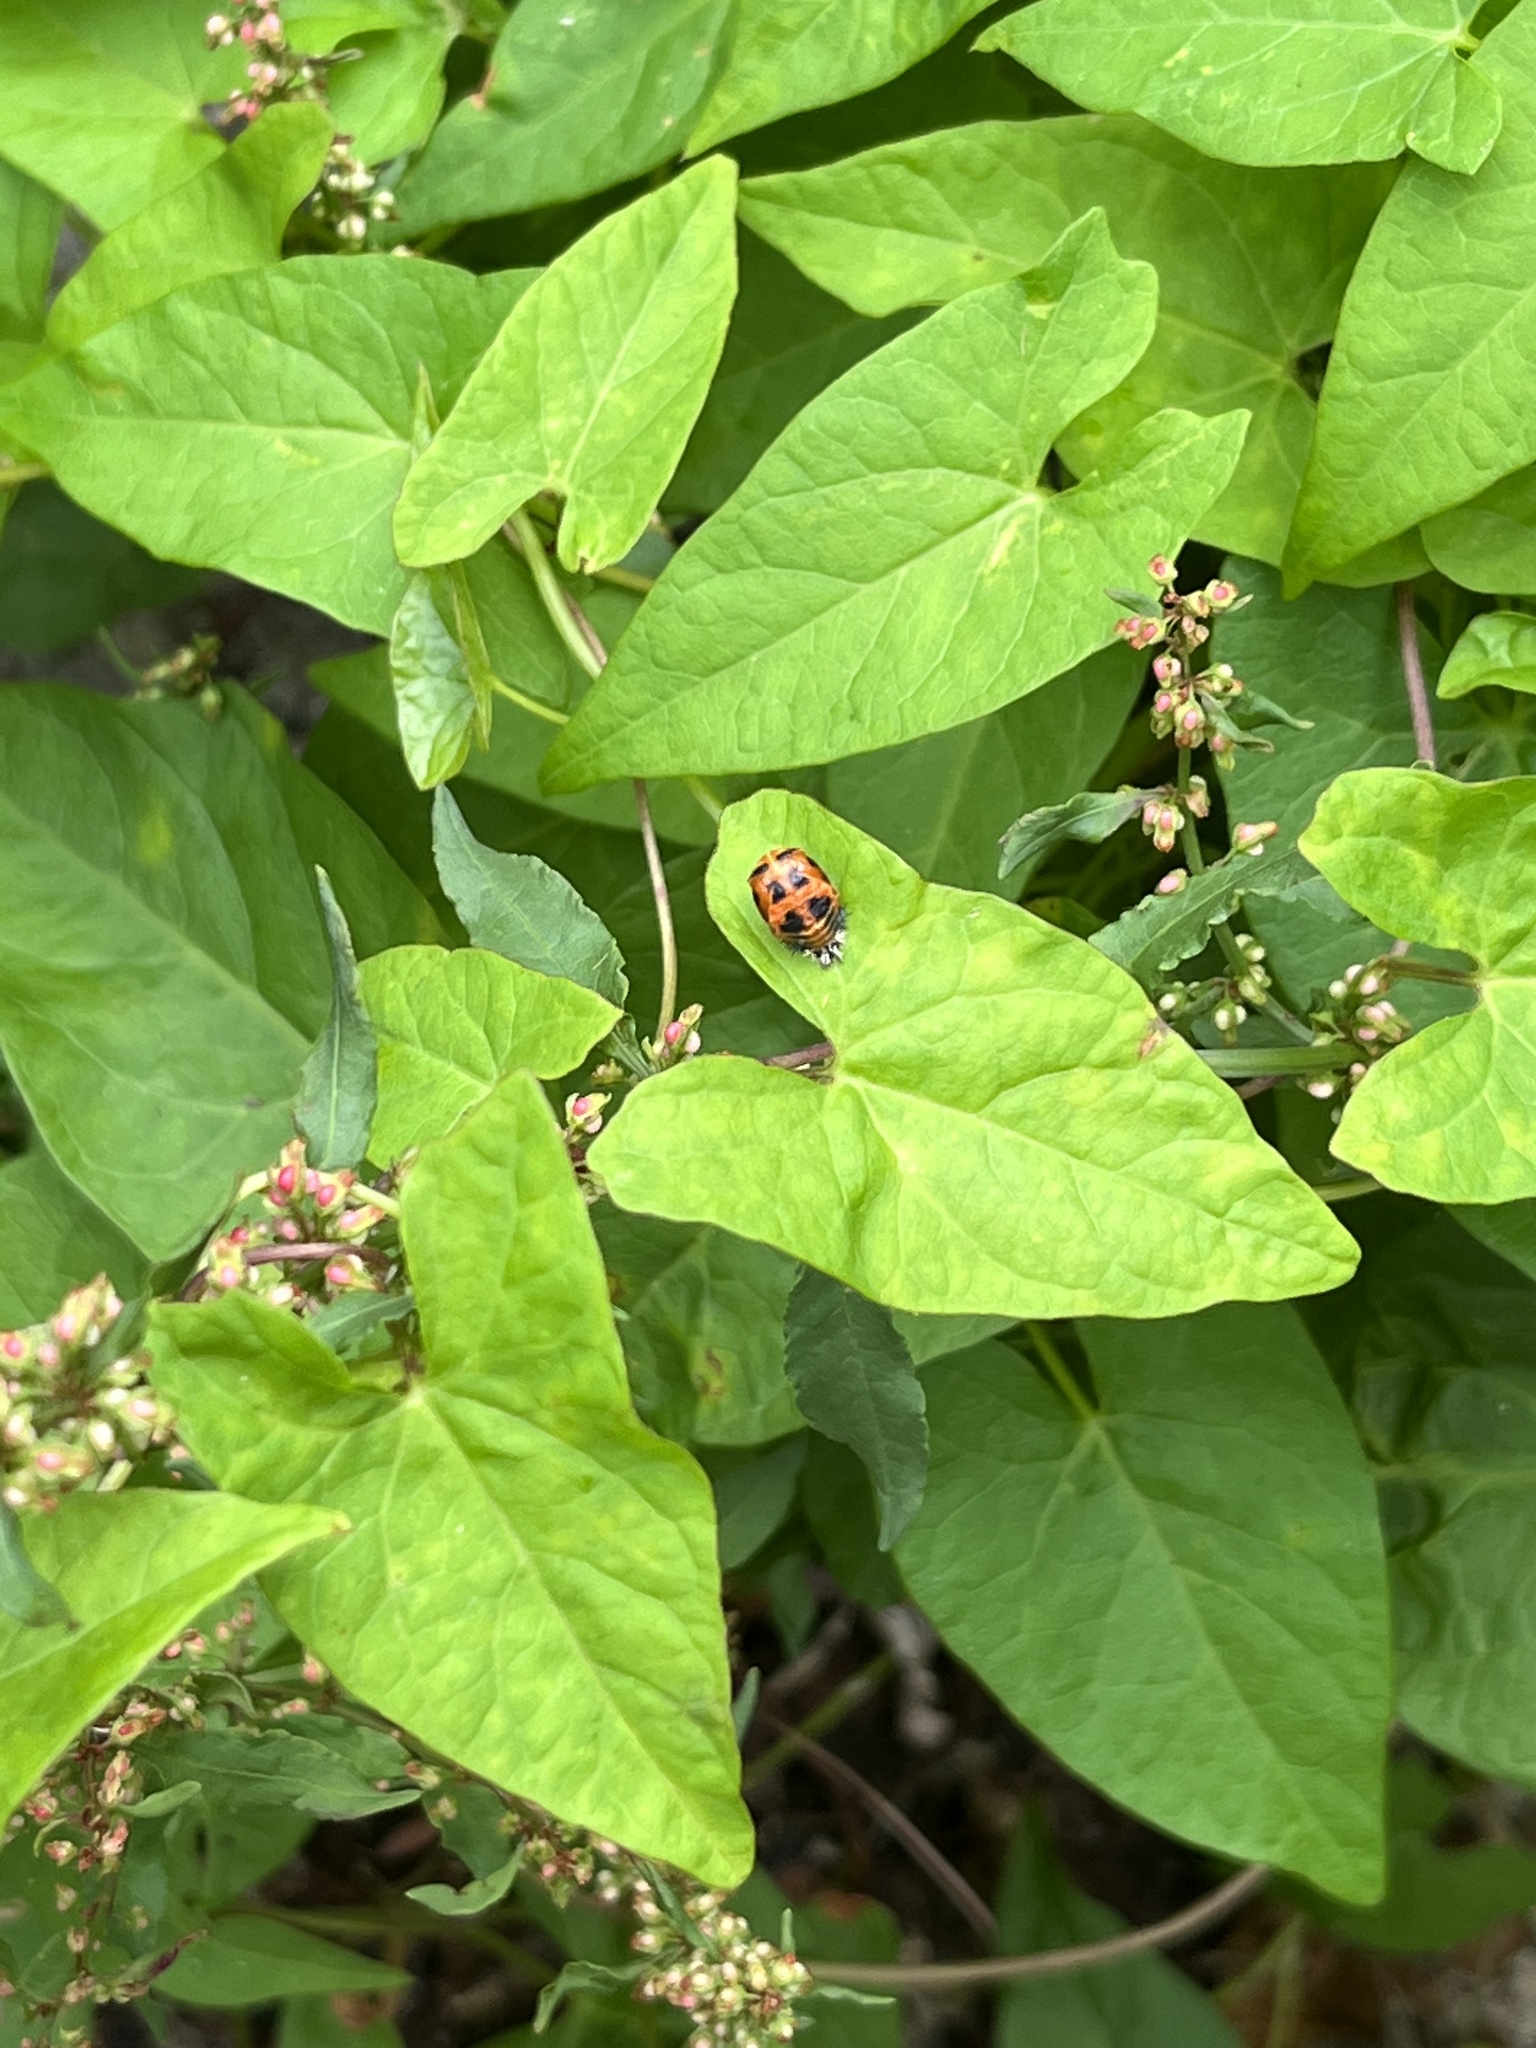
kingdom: Animalia
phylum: Arthropoda
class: Insecta
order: Coleoptera
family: Coccinellidae
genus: Harmonia
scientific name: Harmonia axyridis
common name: Harlequin ladybird
